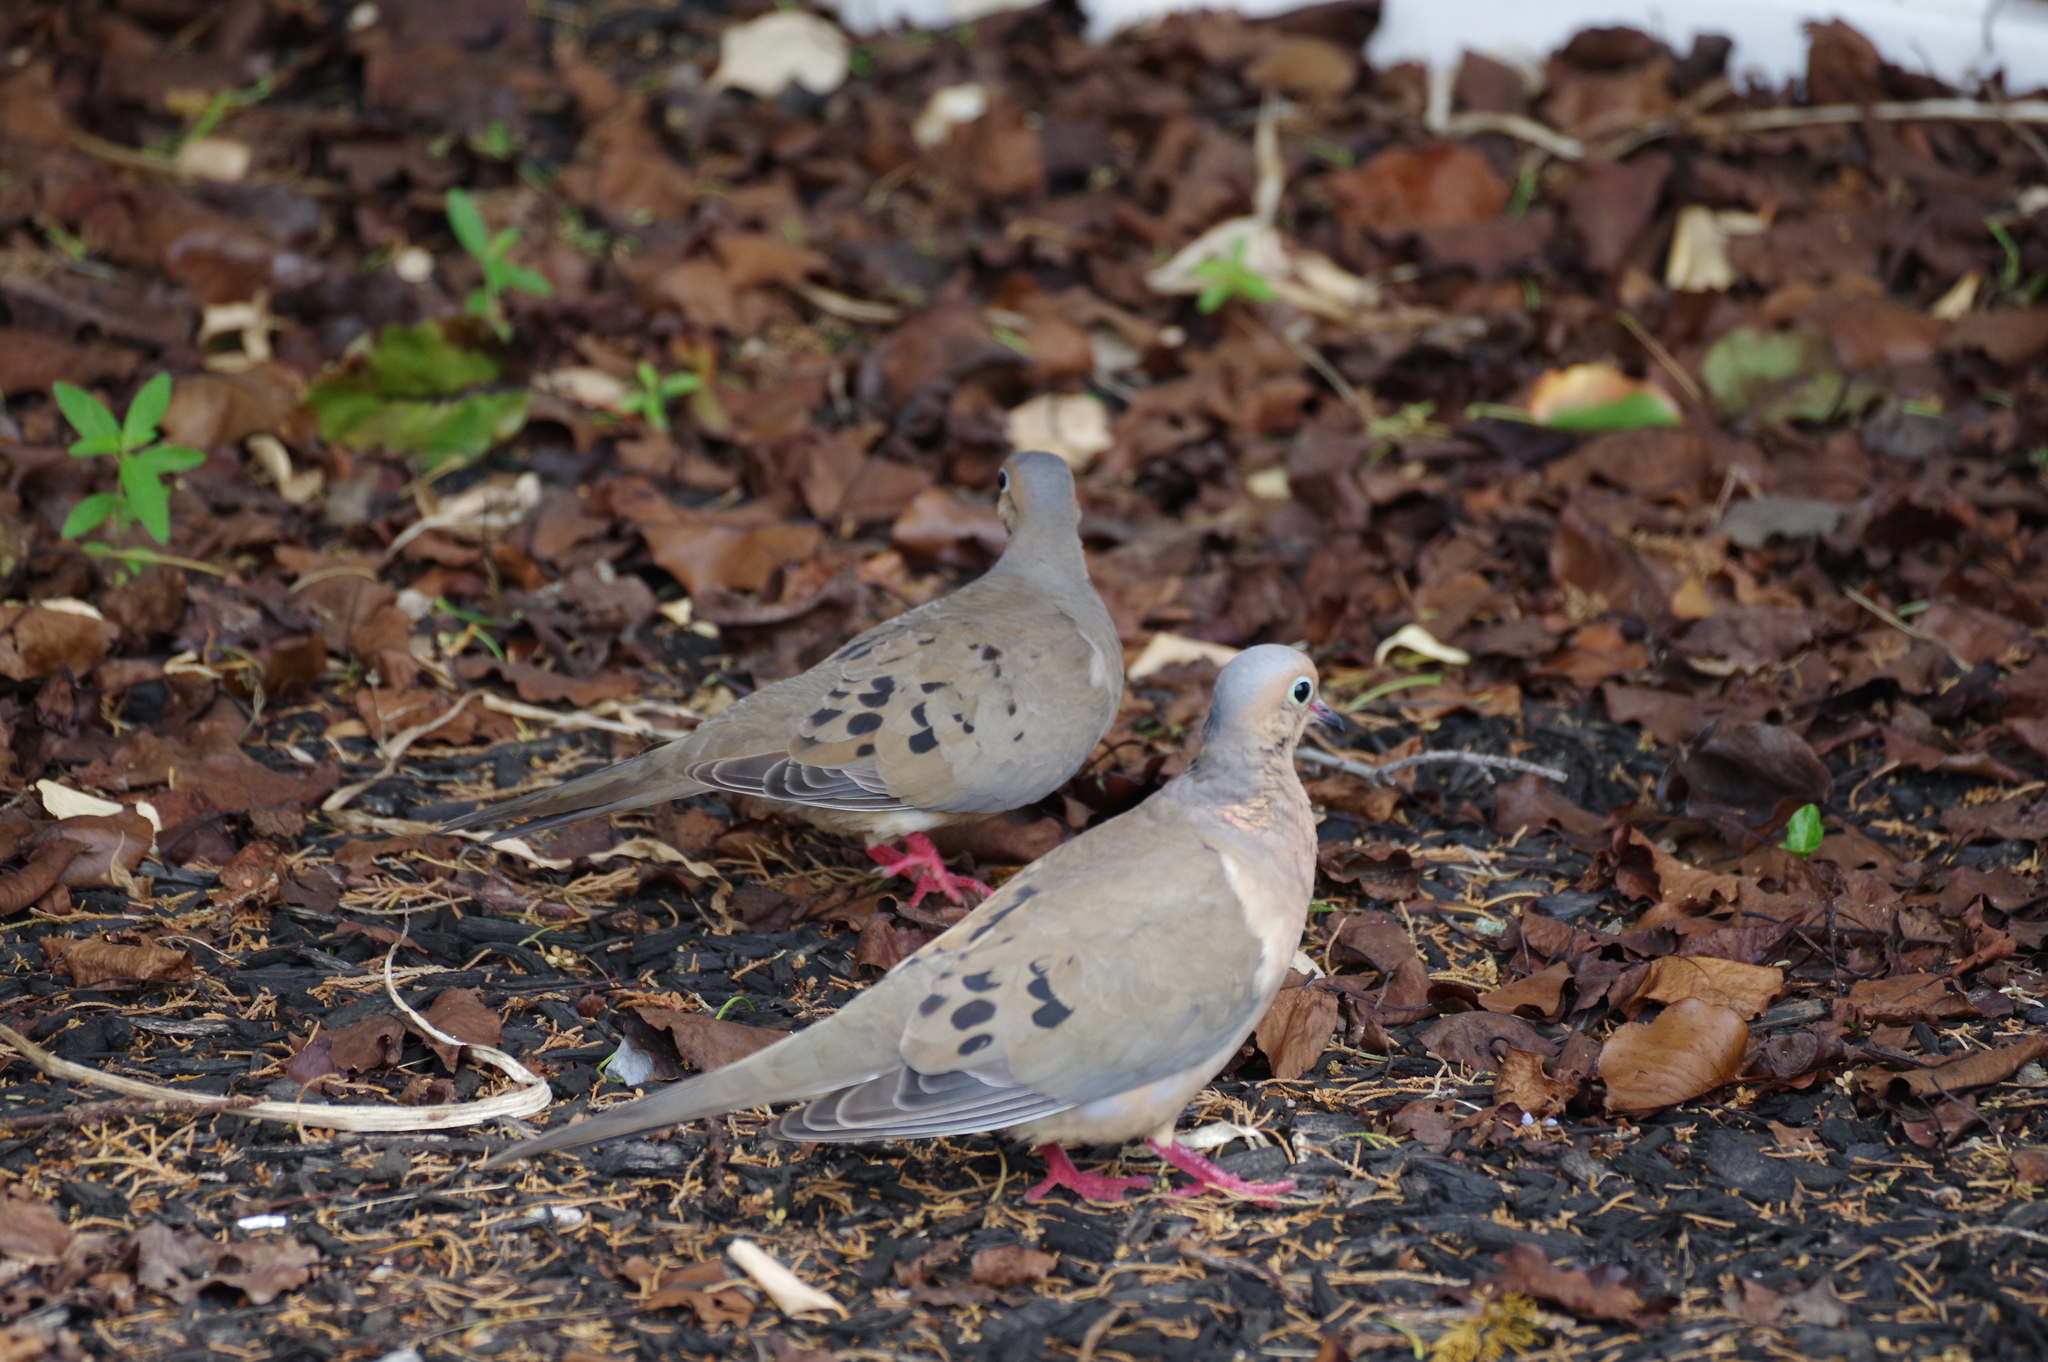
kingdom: Animalia
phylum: Chordata
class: Aves
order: Columbiformes
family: Columbidae
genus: Zenaida
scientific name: Zenaida macroura
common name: Mourning dove
